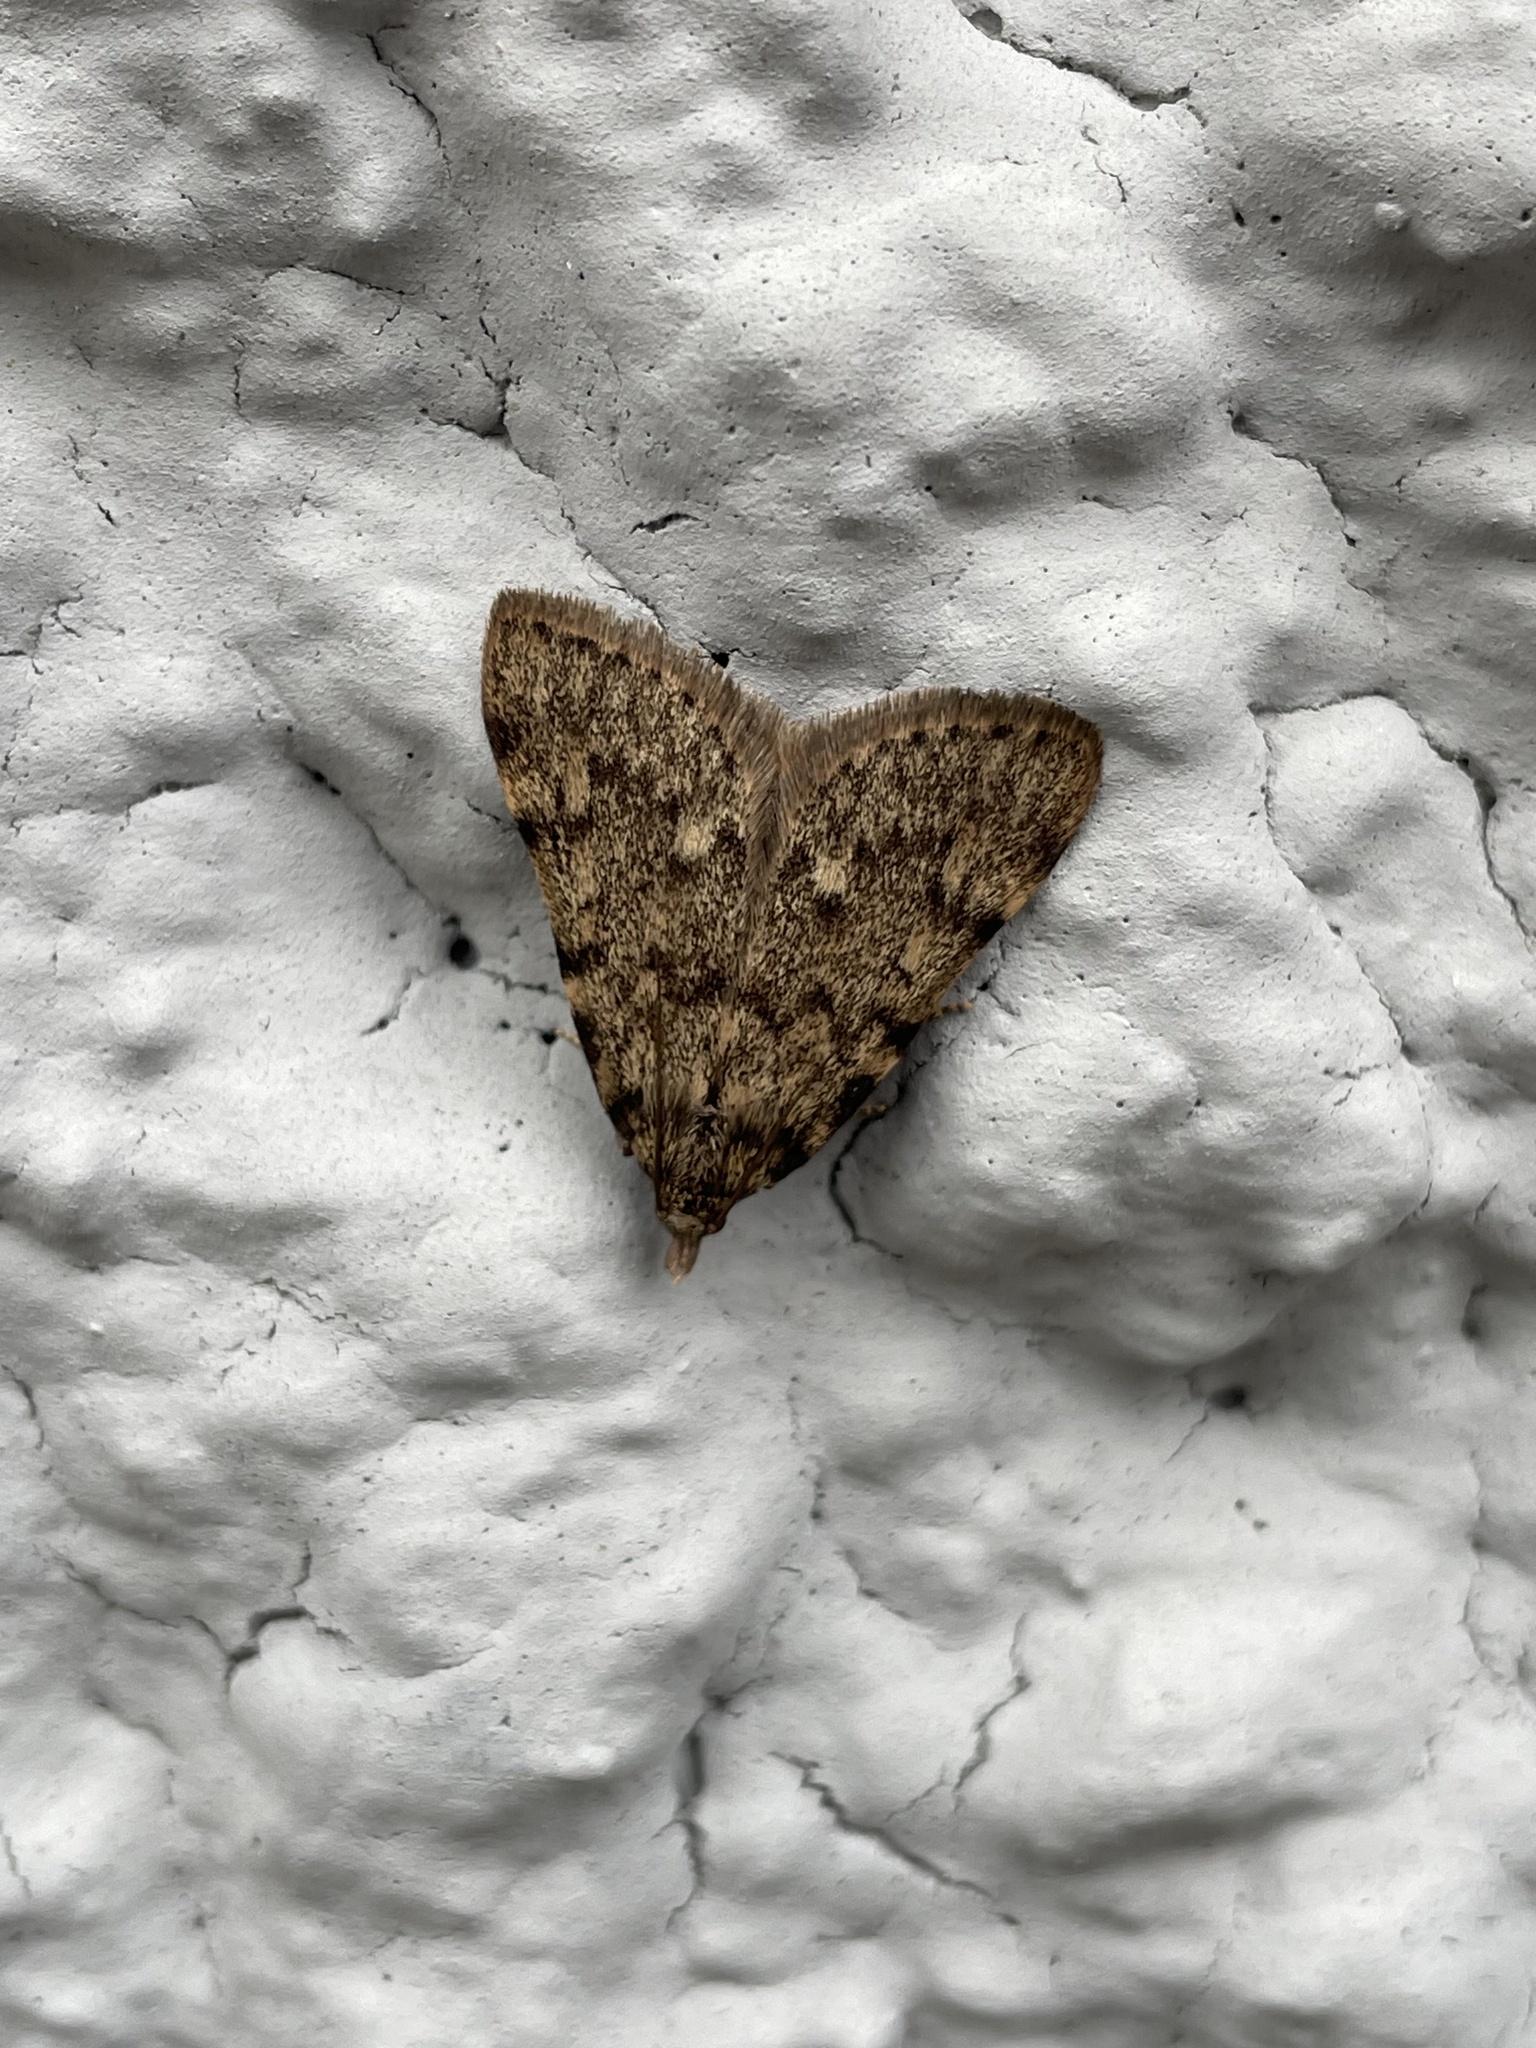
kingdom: Animalia
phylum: Arthropoda
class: Insecta
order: Lepidoptera
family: Pyralidae
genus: Aglossa
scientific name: Aglossa pinguinalis
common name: Large tabby
